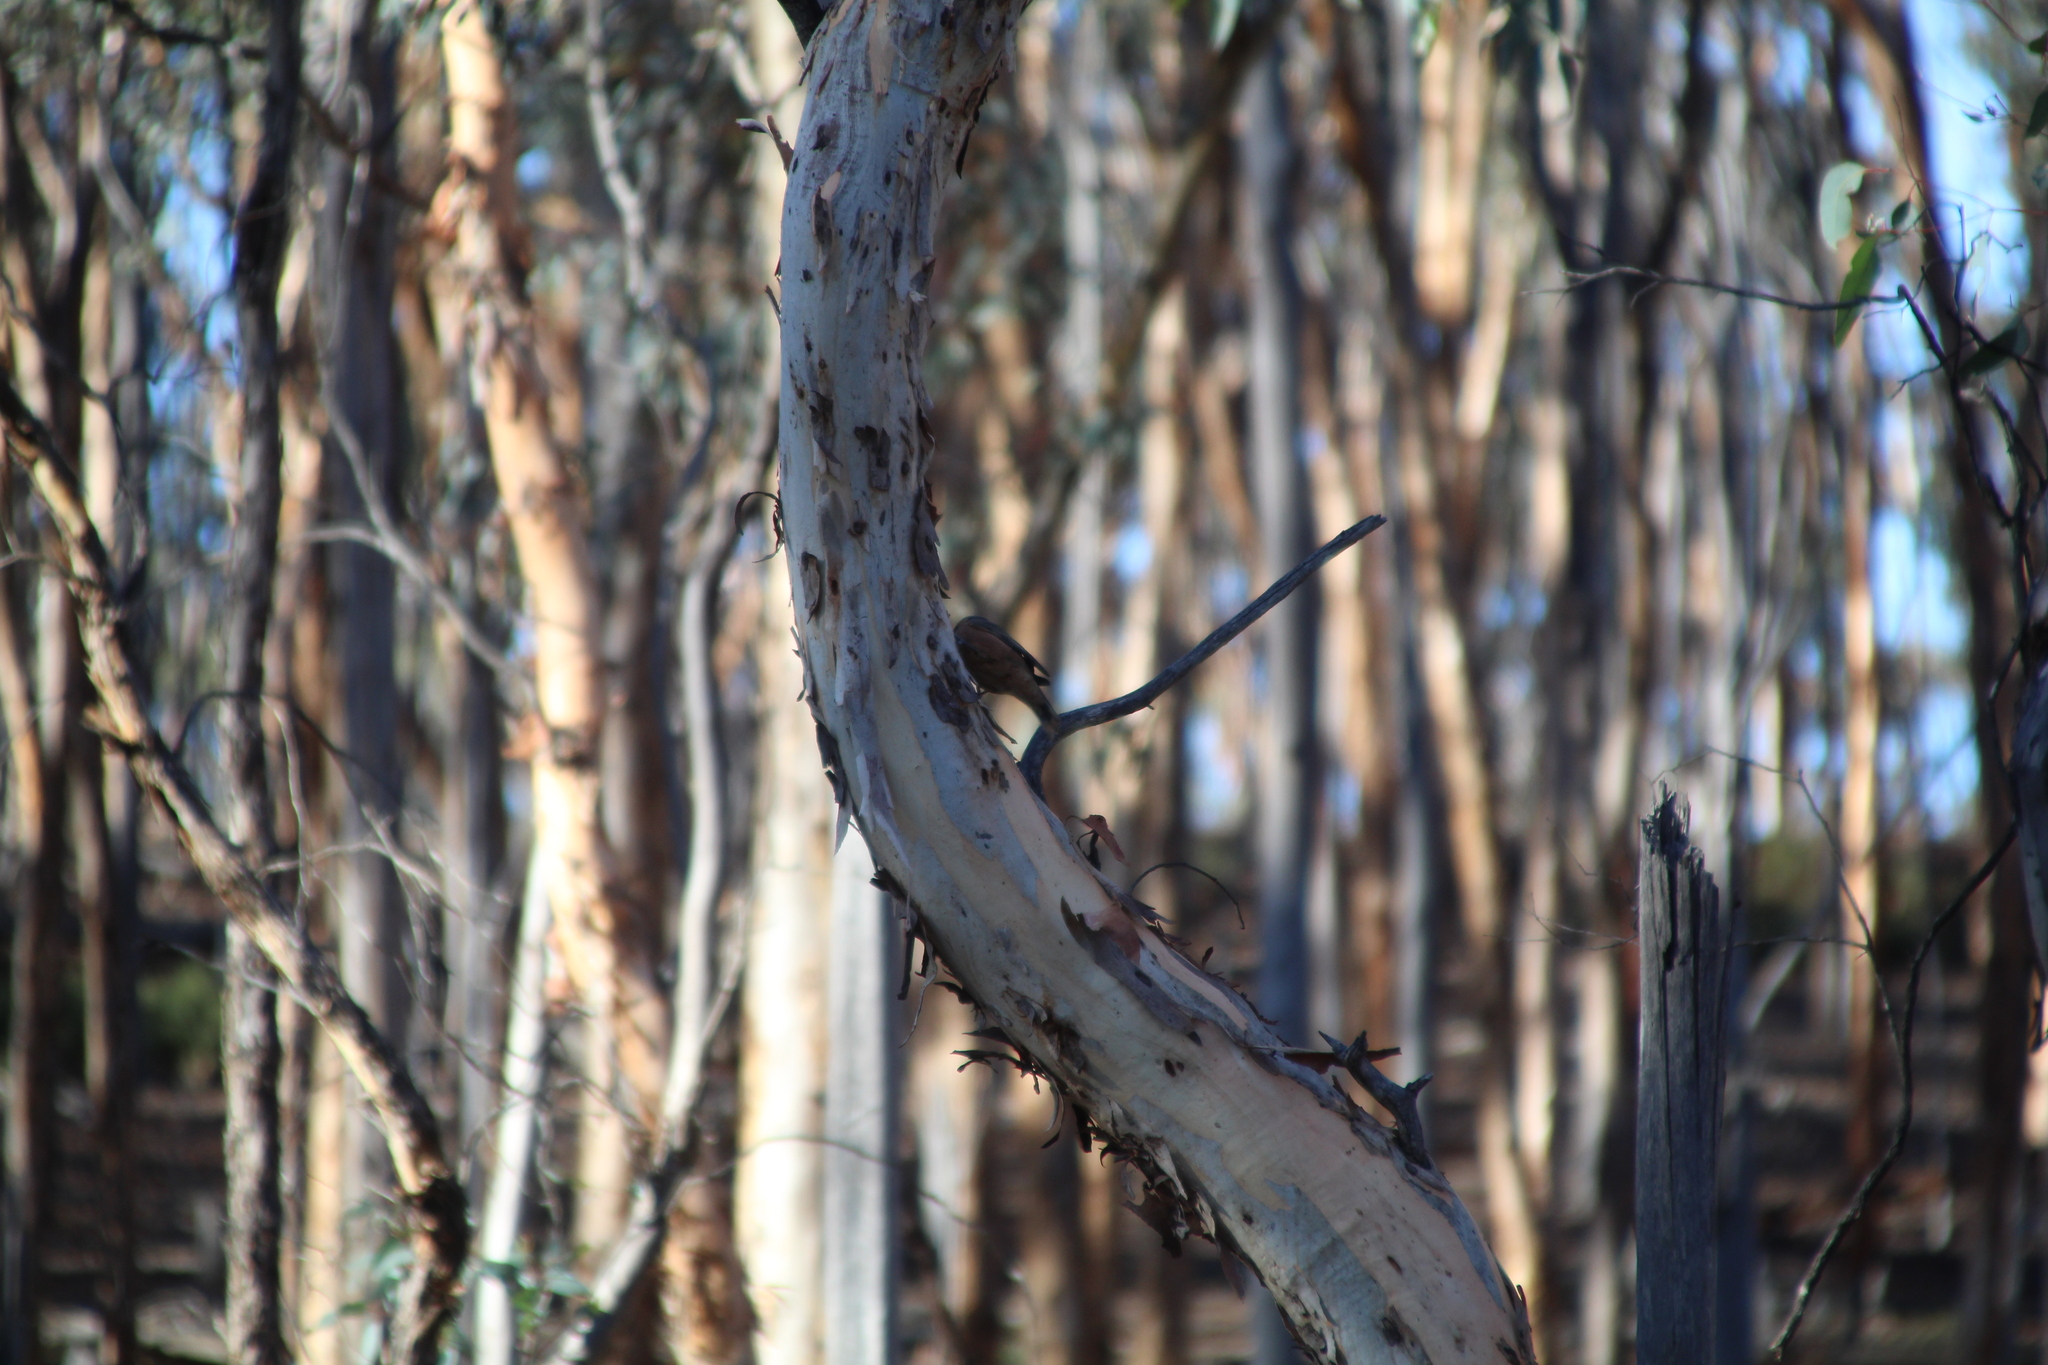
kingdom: Animalia
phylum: Chordata
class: Aves
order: Passeriformes
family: Climacteridae
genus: Climacteris
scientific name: Climacteris rufus
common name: Rufous treecreeper
